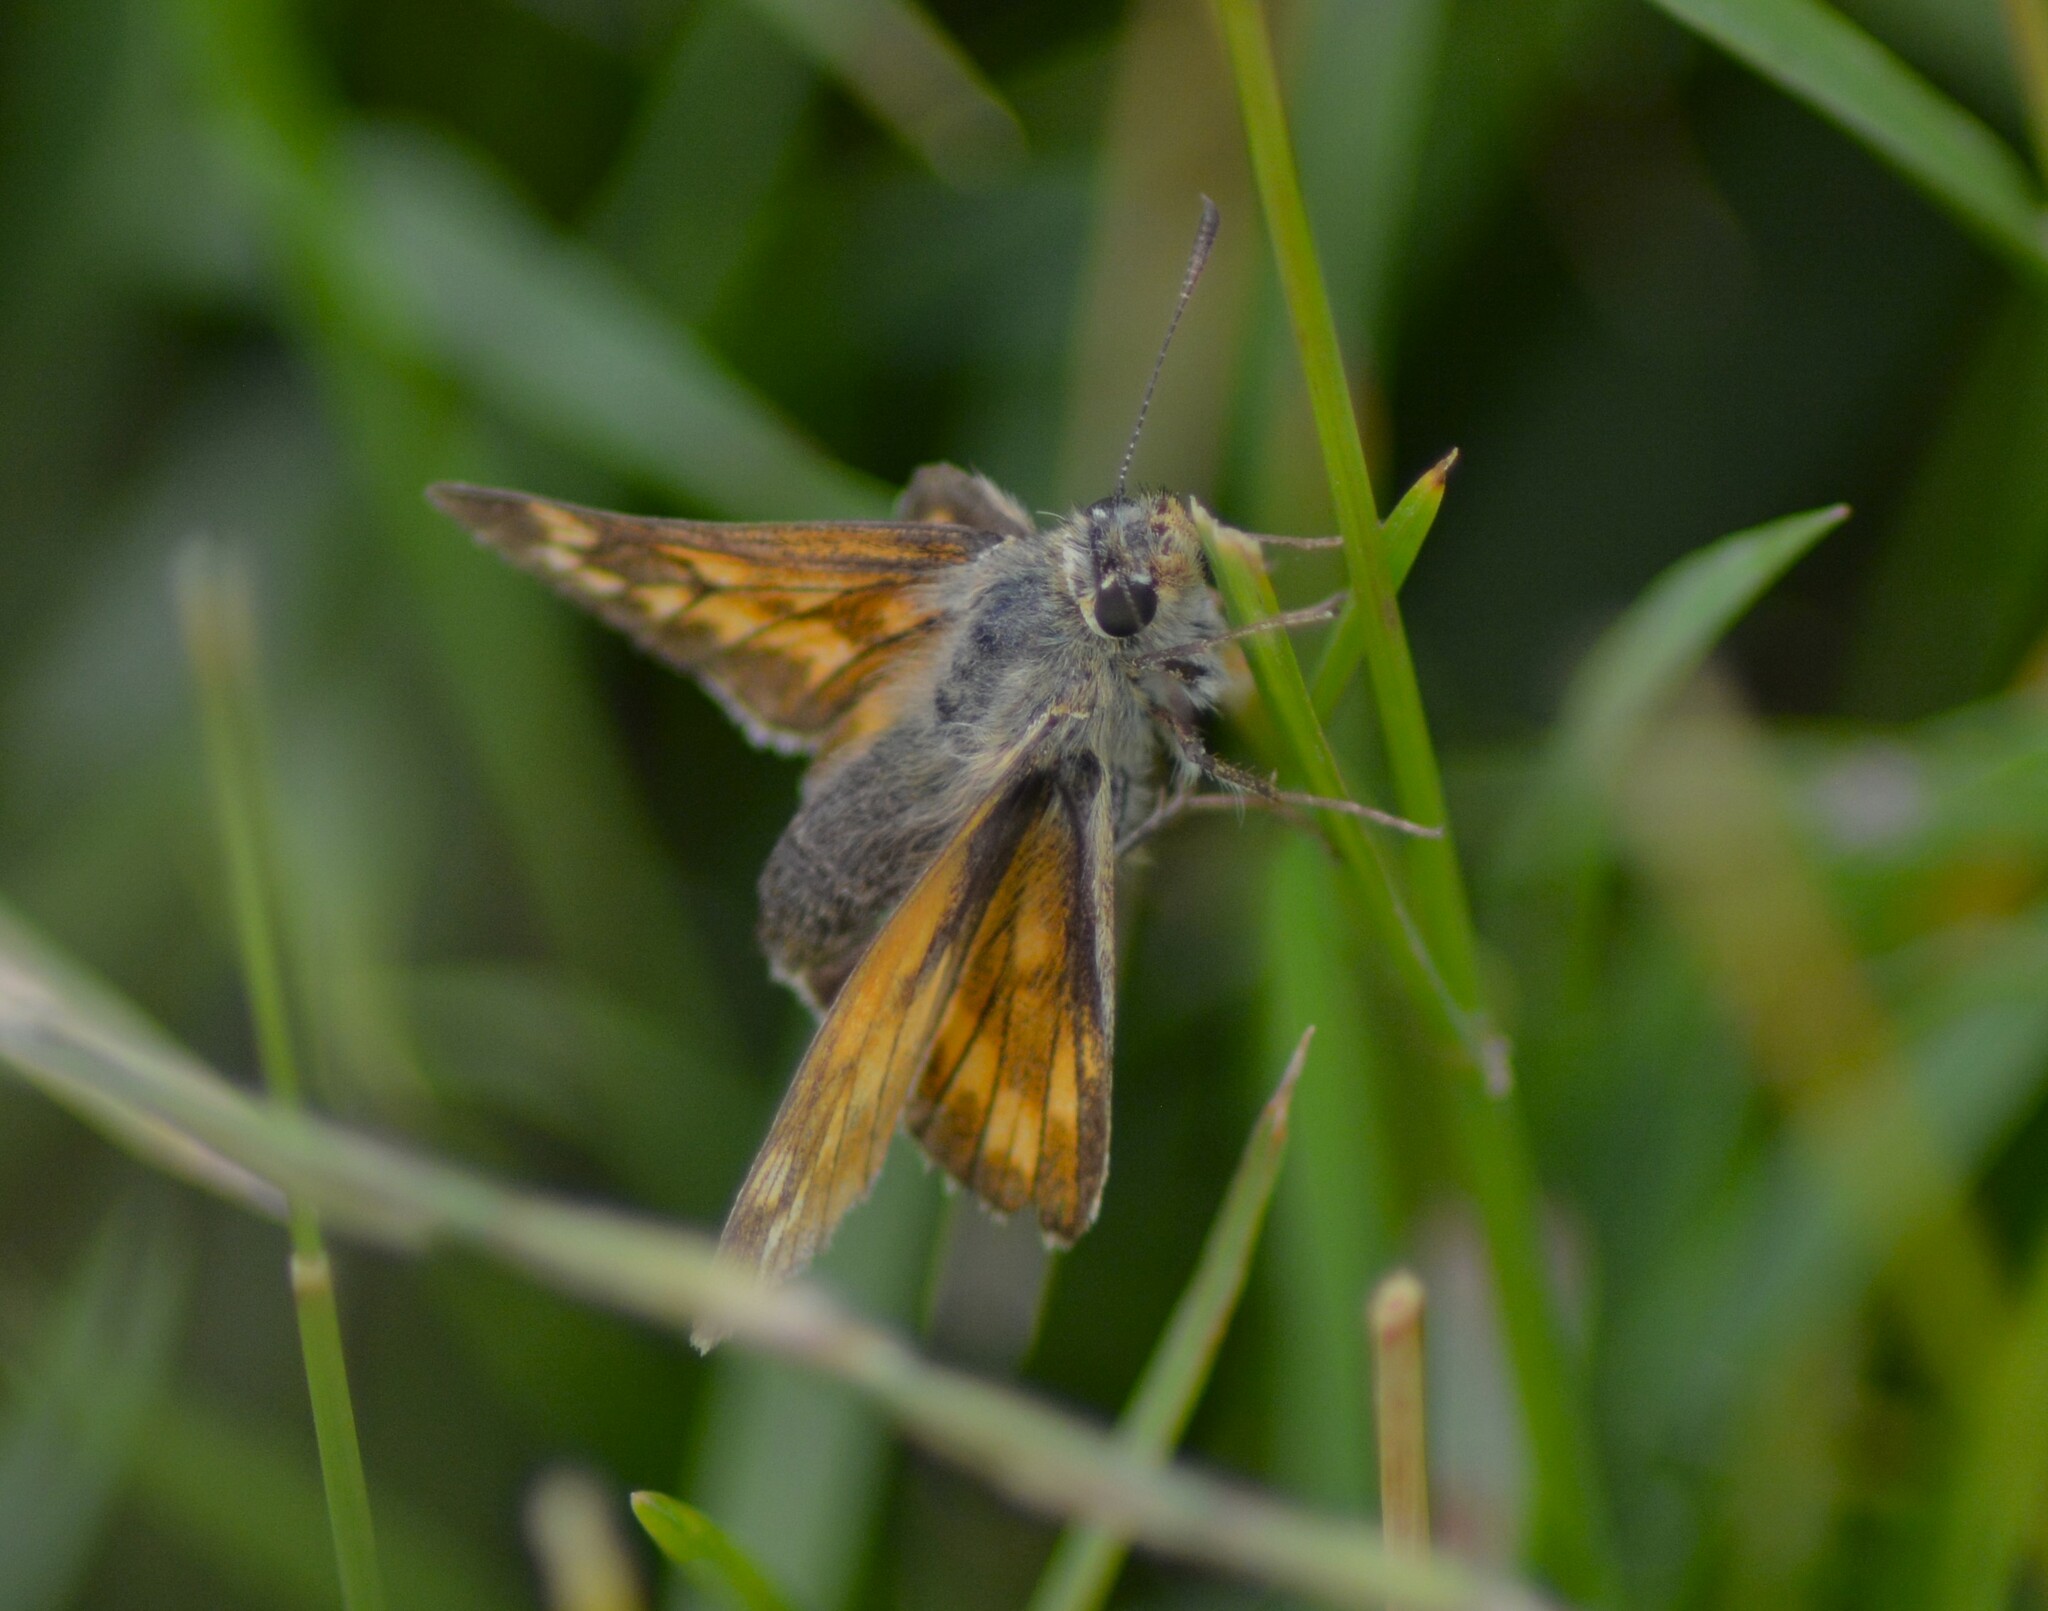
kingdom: Animalia
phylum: Arthropoda
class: Insecta
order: Lepidoptera
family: Hesperiidae
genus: Ochlodes
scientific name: Ochlodes venata
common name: Large skipper
